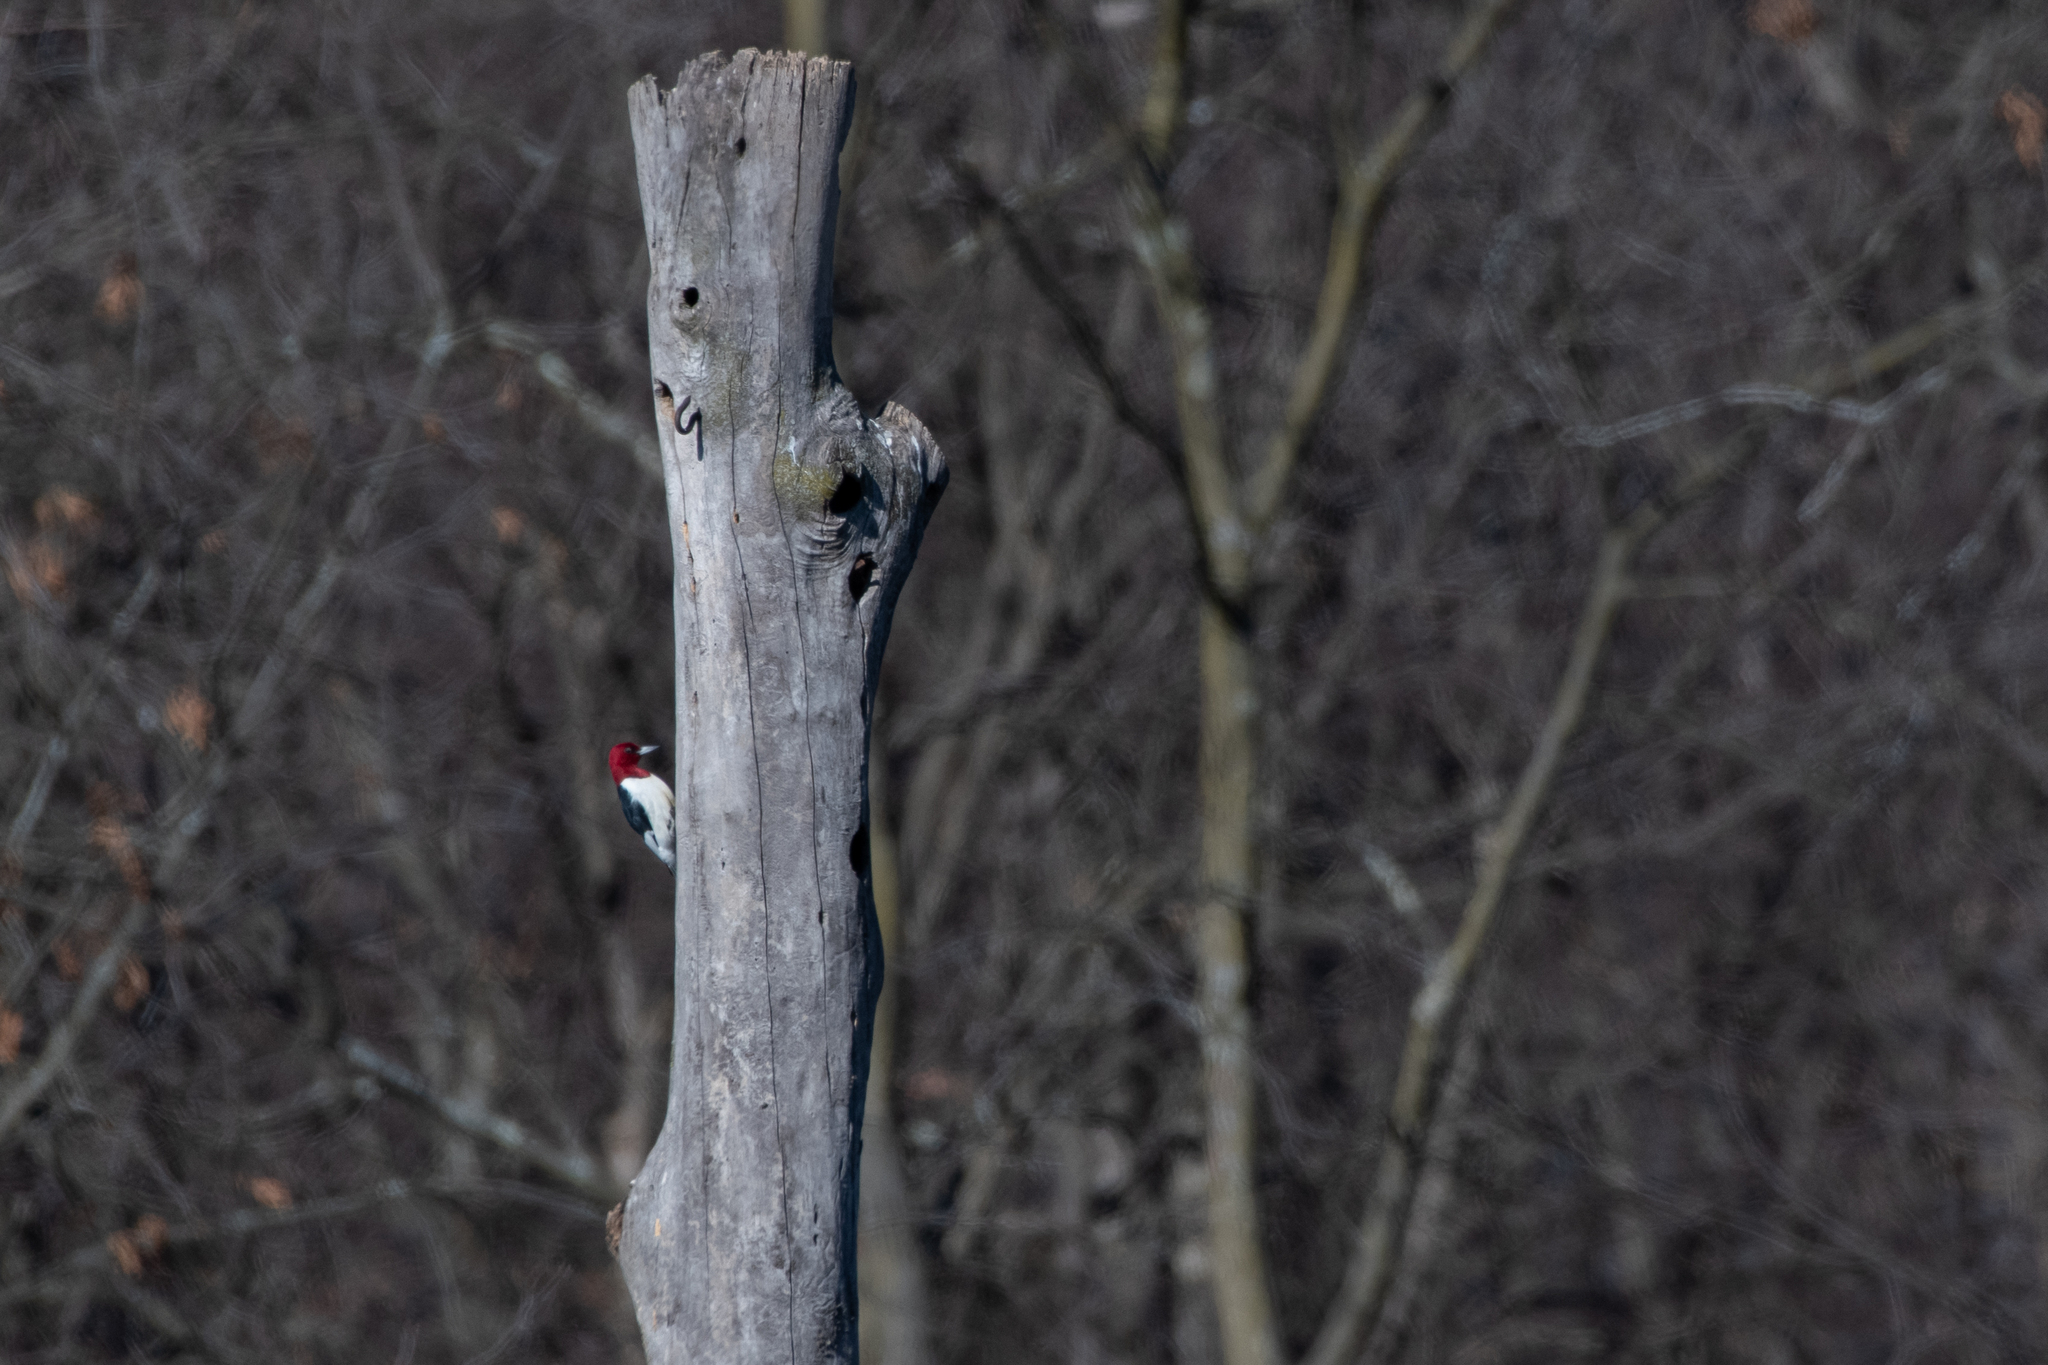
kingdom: Animalia
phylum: Chordata
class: Aves
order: Piciformes
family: Picidae
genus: Melanerpes
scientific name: Melanerpes erythrocephalus
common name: Red-headed woodpecker
